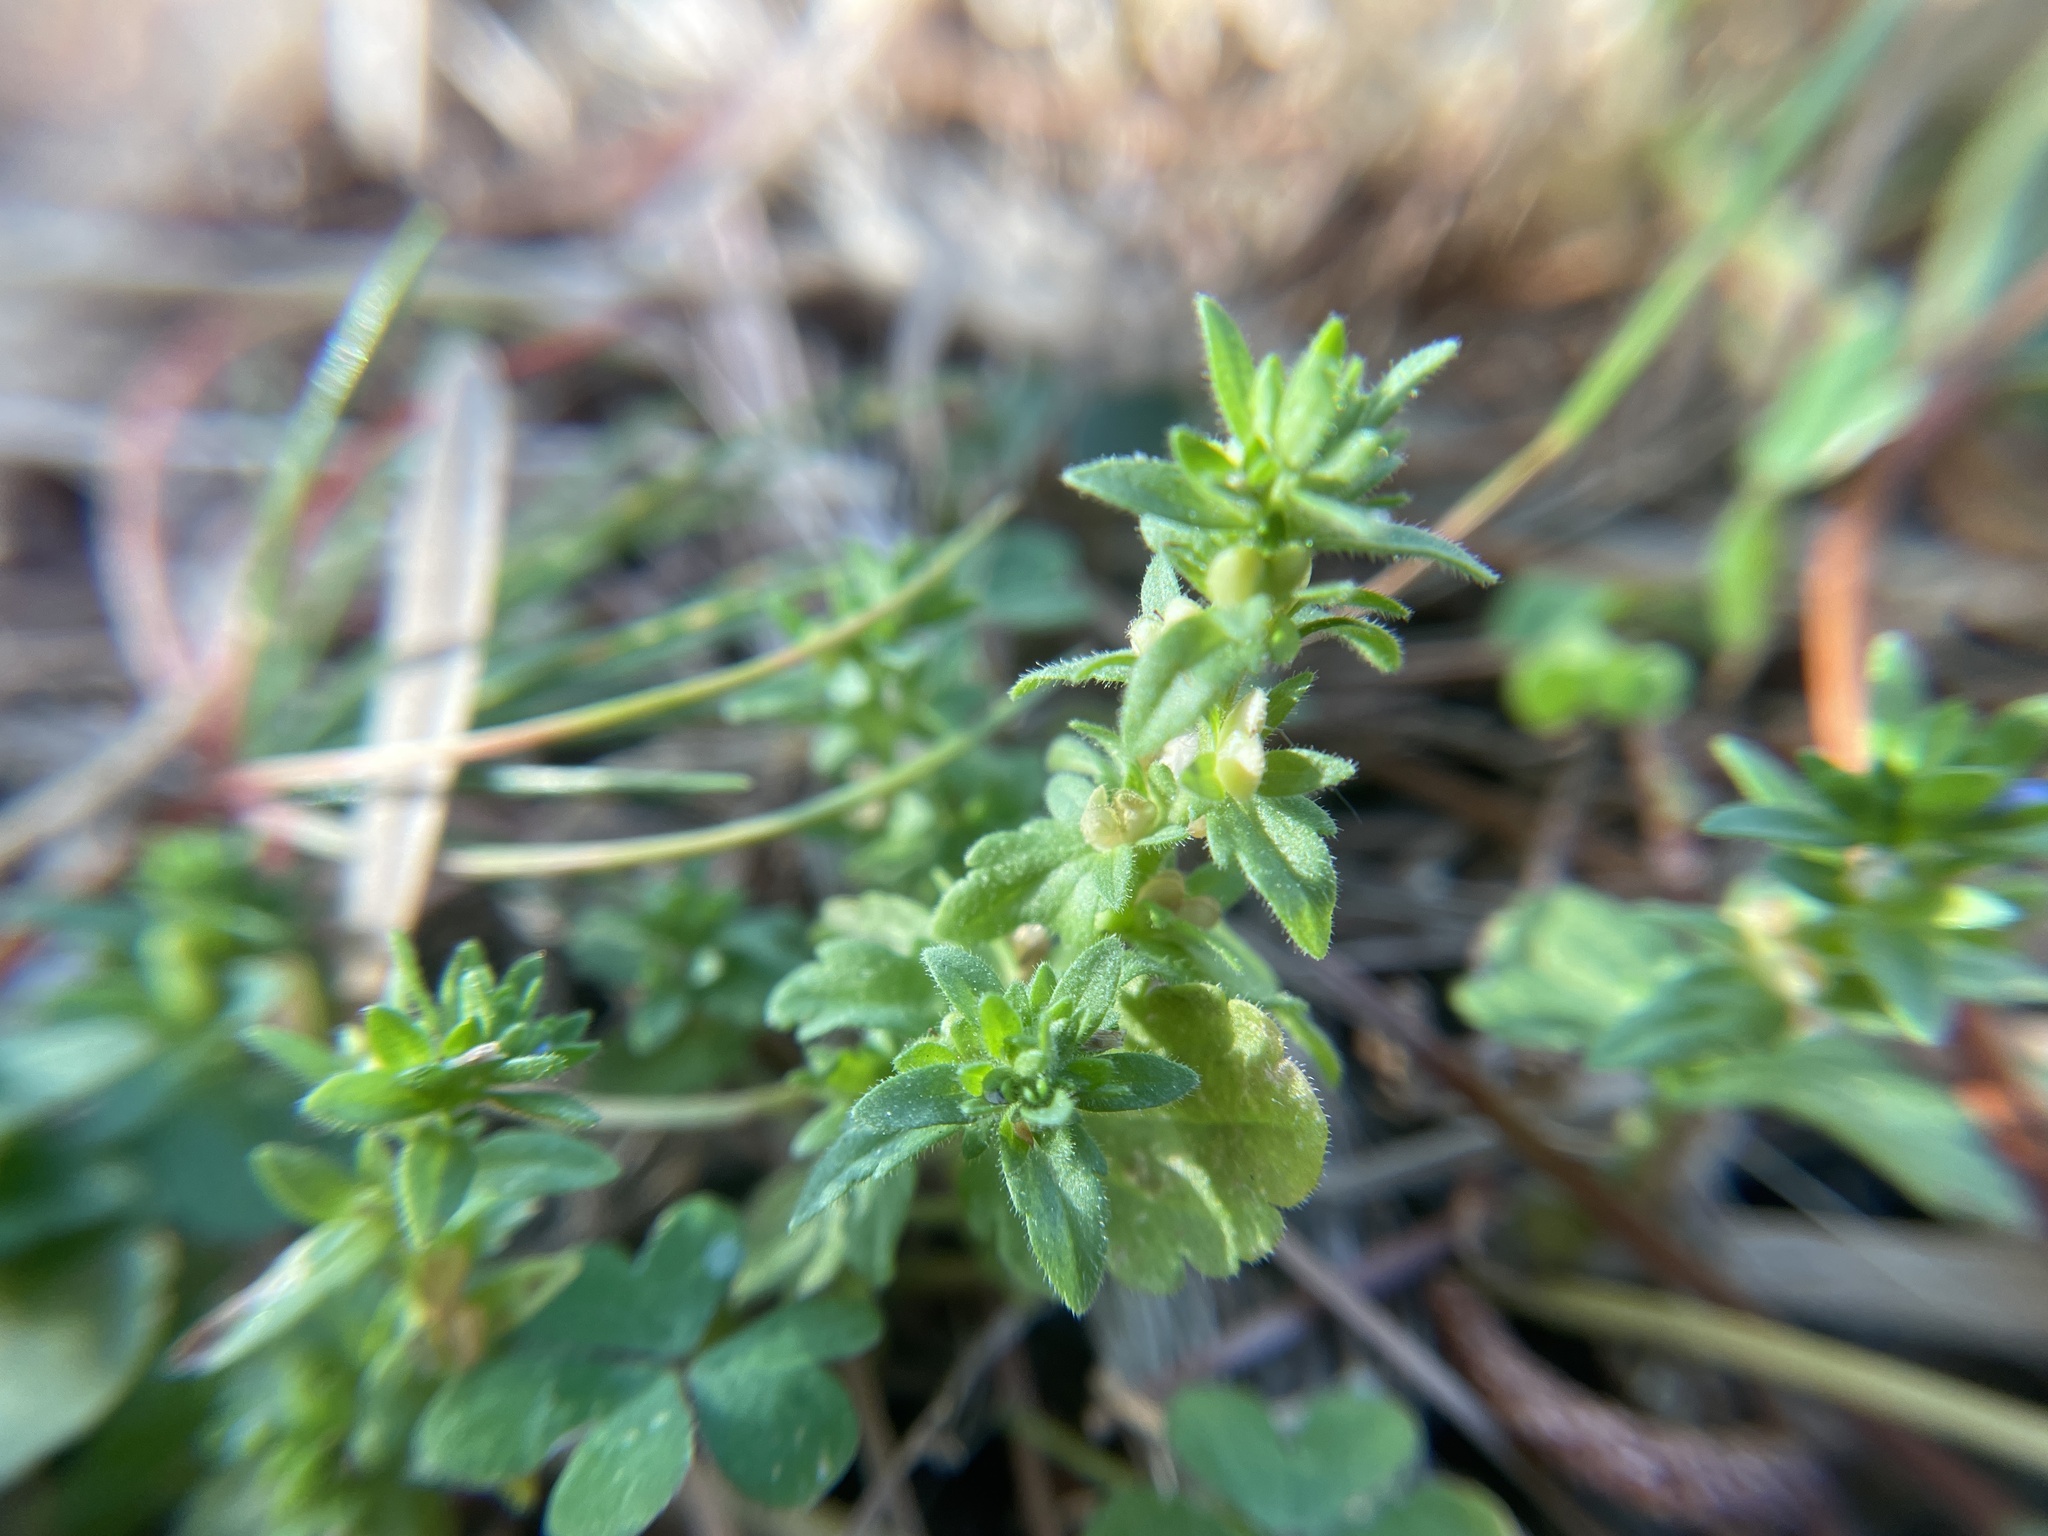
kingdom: Plantae
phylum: Tracheophyta
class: Magnoliopsida
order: Lamiales
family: Plantaginaceae
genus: Veronica
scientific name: Veronica arvensis
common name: Corn speedwell
